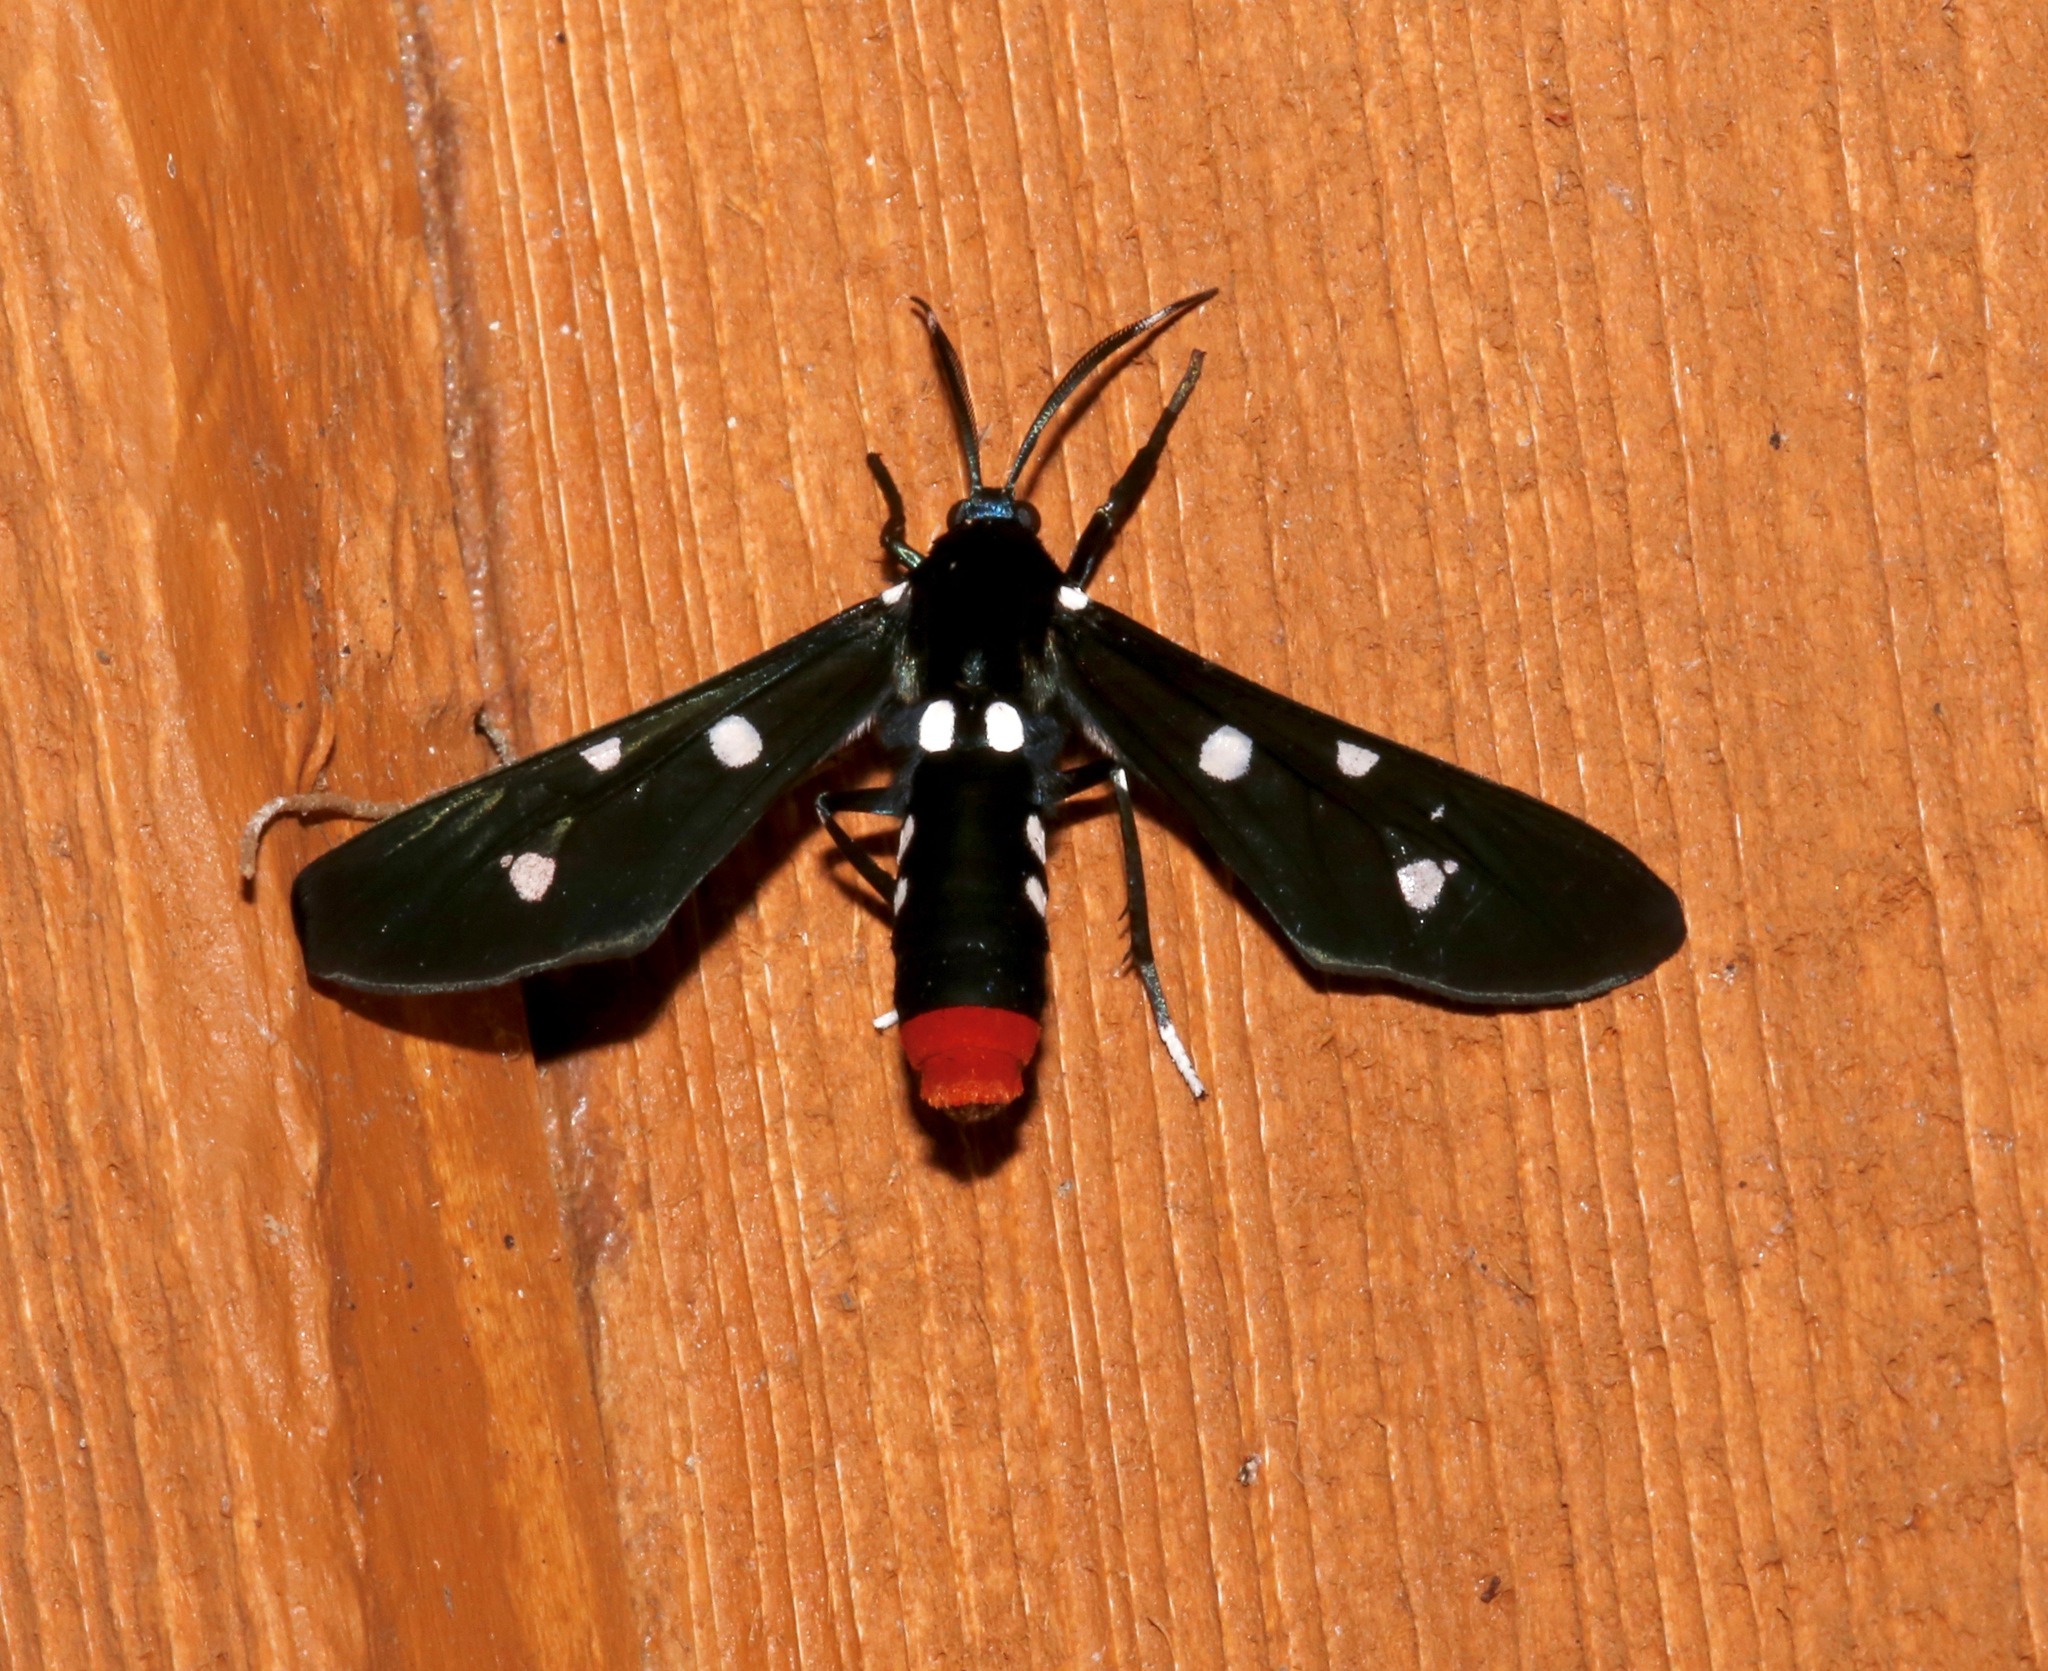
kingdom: Animalia
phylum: Arthropoda
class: Insecta
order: Lepidoptera
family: Erebidae
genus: Syntomeida
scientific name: Syntomeida epilais
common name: Polka-dot wasp moth
